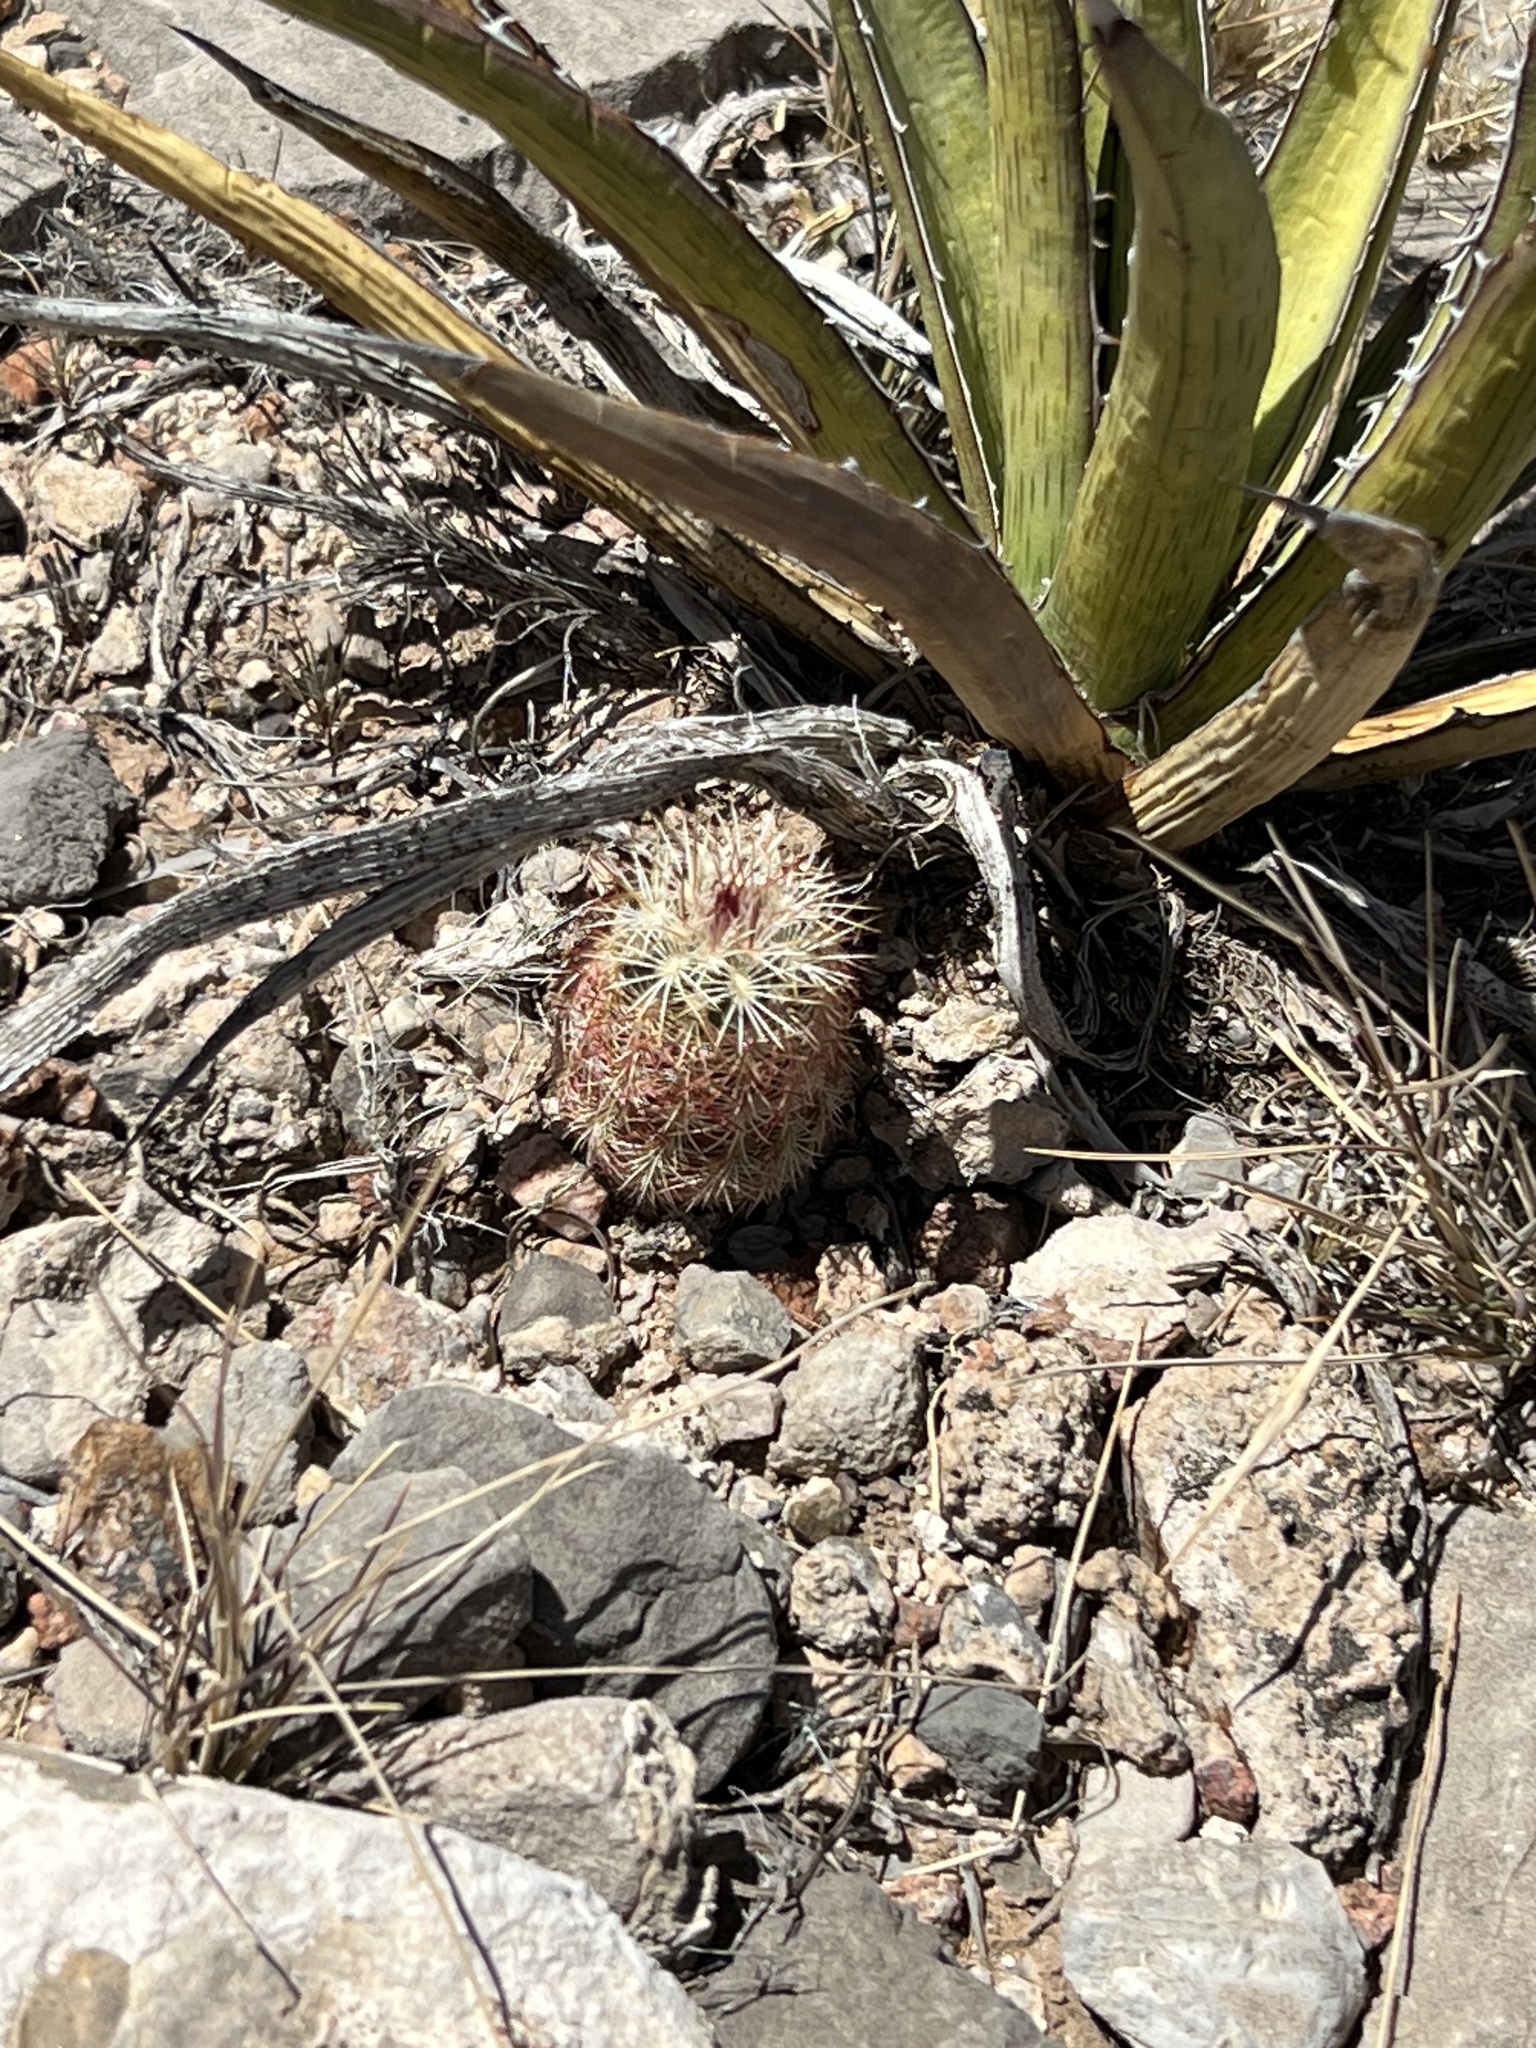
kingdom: Plantae
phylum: Tracheophyta
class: Magnoliopsida
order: Caryophyllales
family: Cactaceae
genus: Echinocereus
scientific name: Echinocereus viridiflorus
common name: Nylon hedgehog cactus
